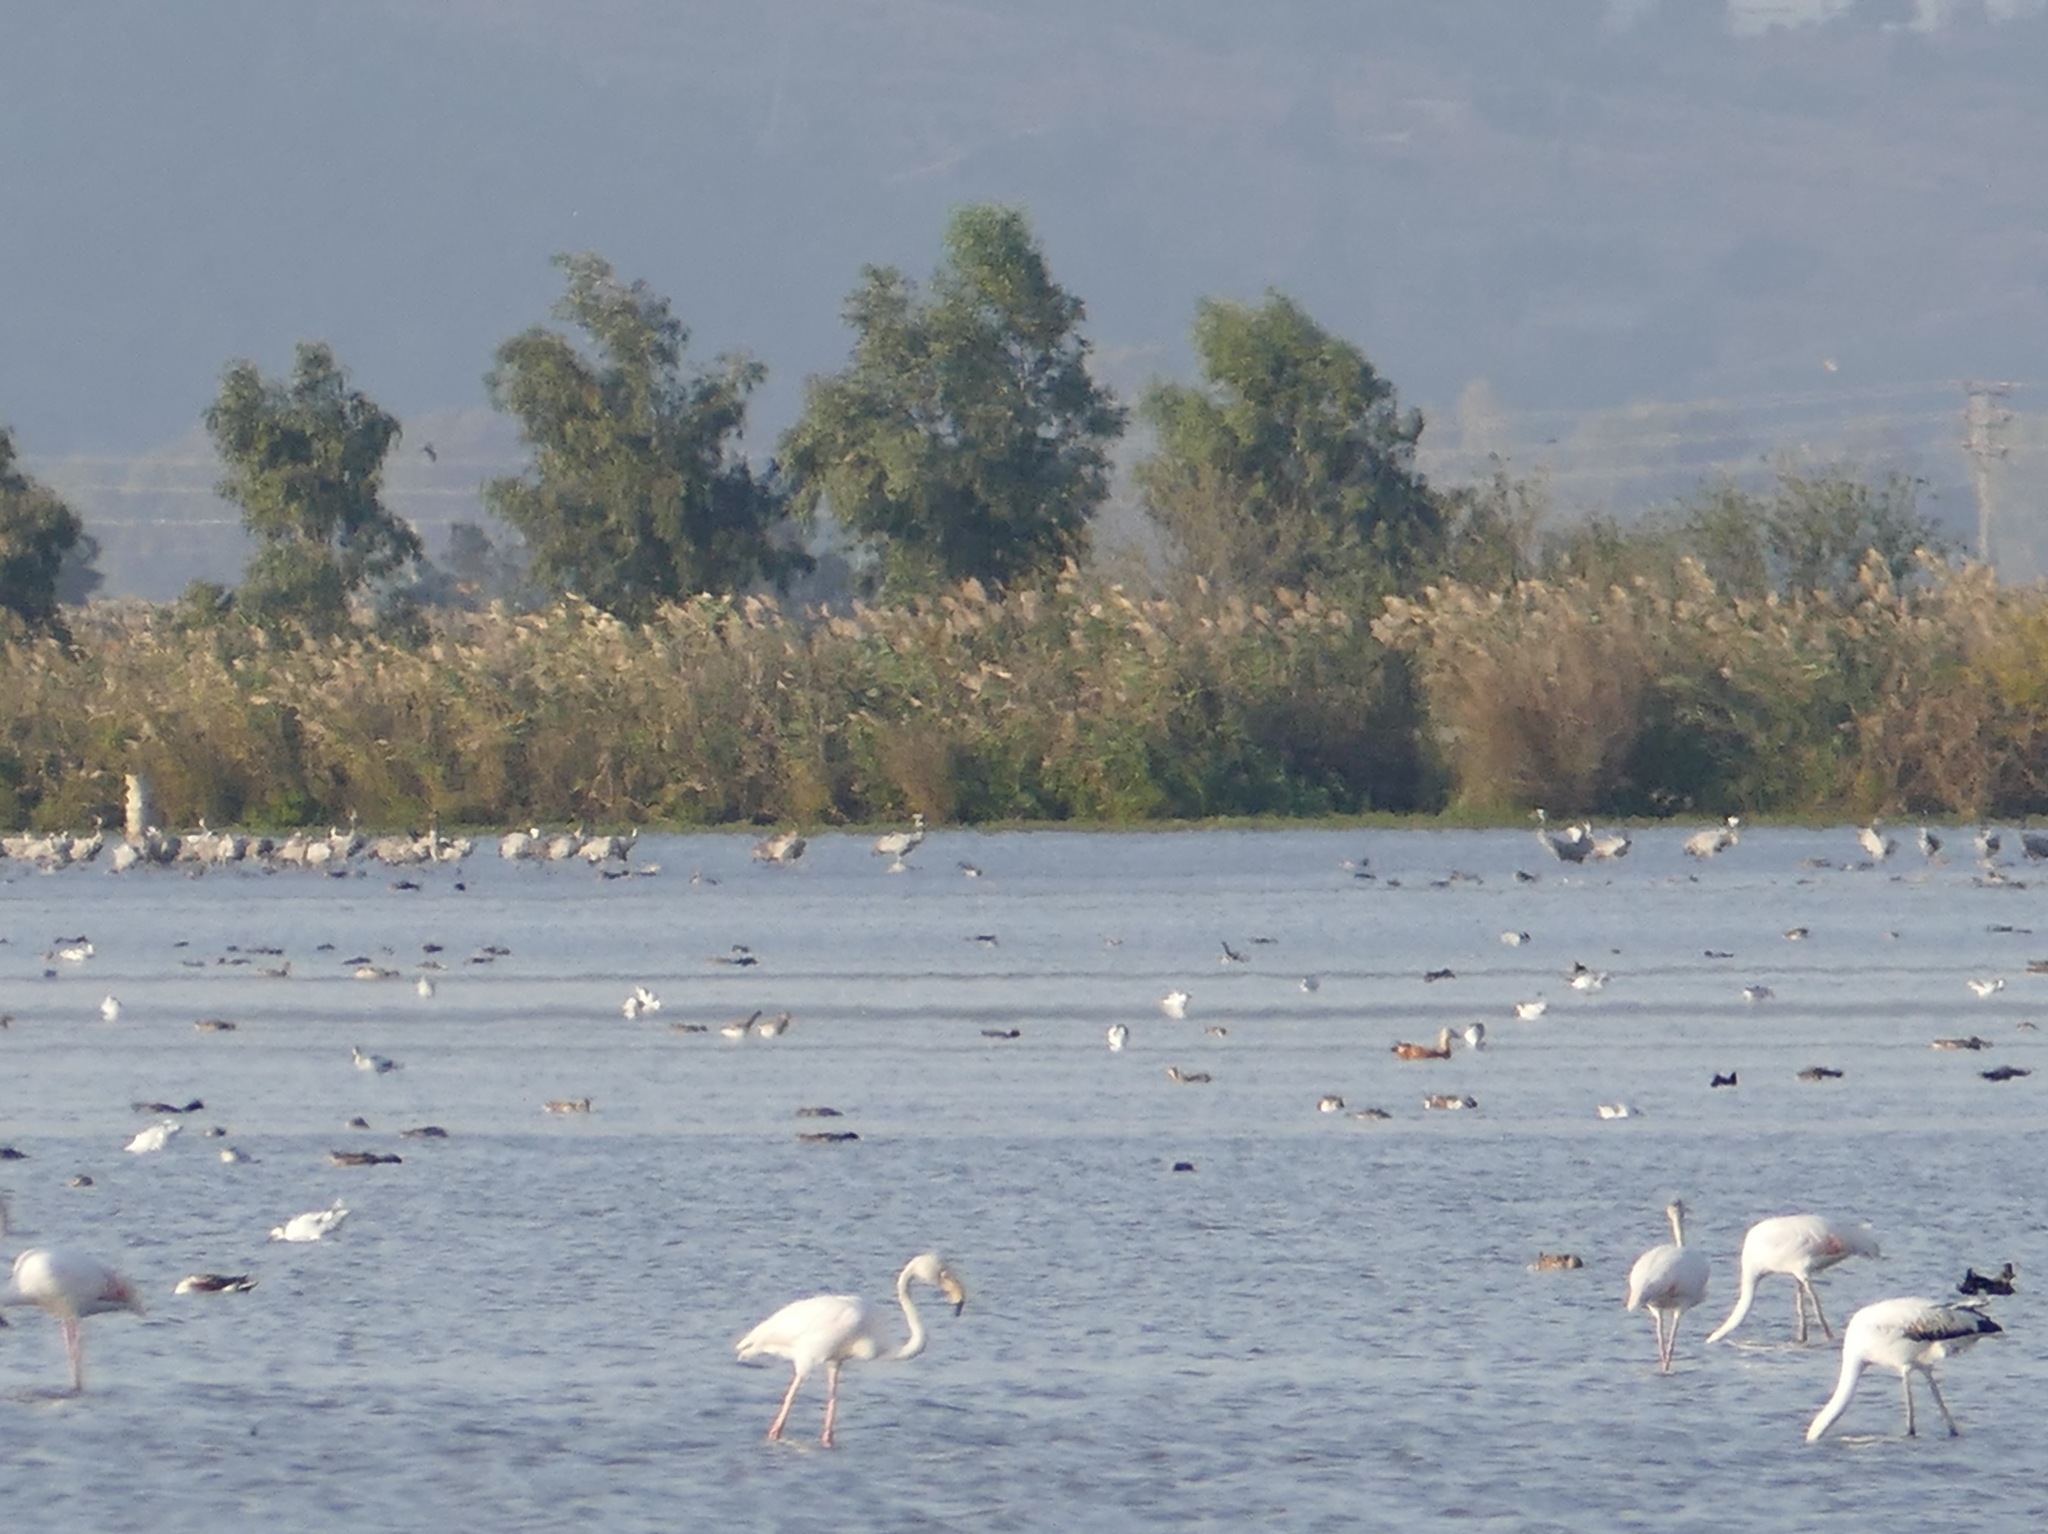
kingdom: Animalia
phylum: Chordata
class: Aves
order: Phoenicopteriformes
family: Phoenicopteridae
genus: Phoenicopterus
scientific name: Phoenicopterus roseus
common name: Greater flamingo
